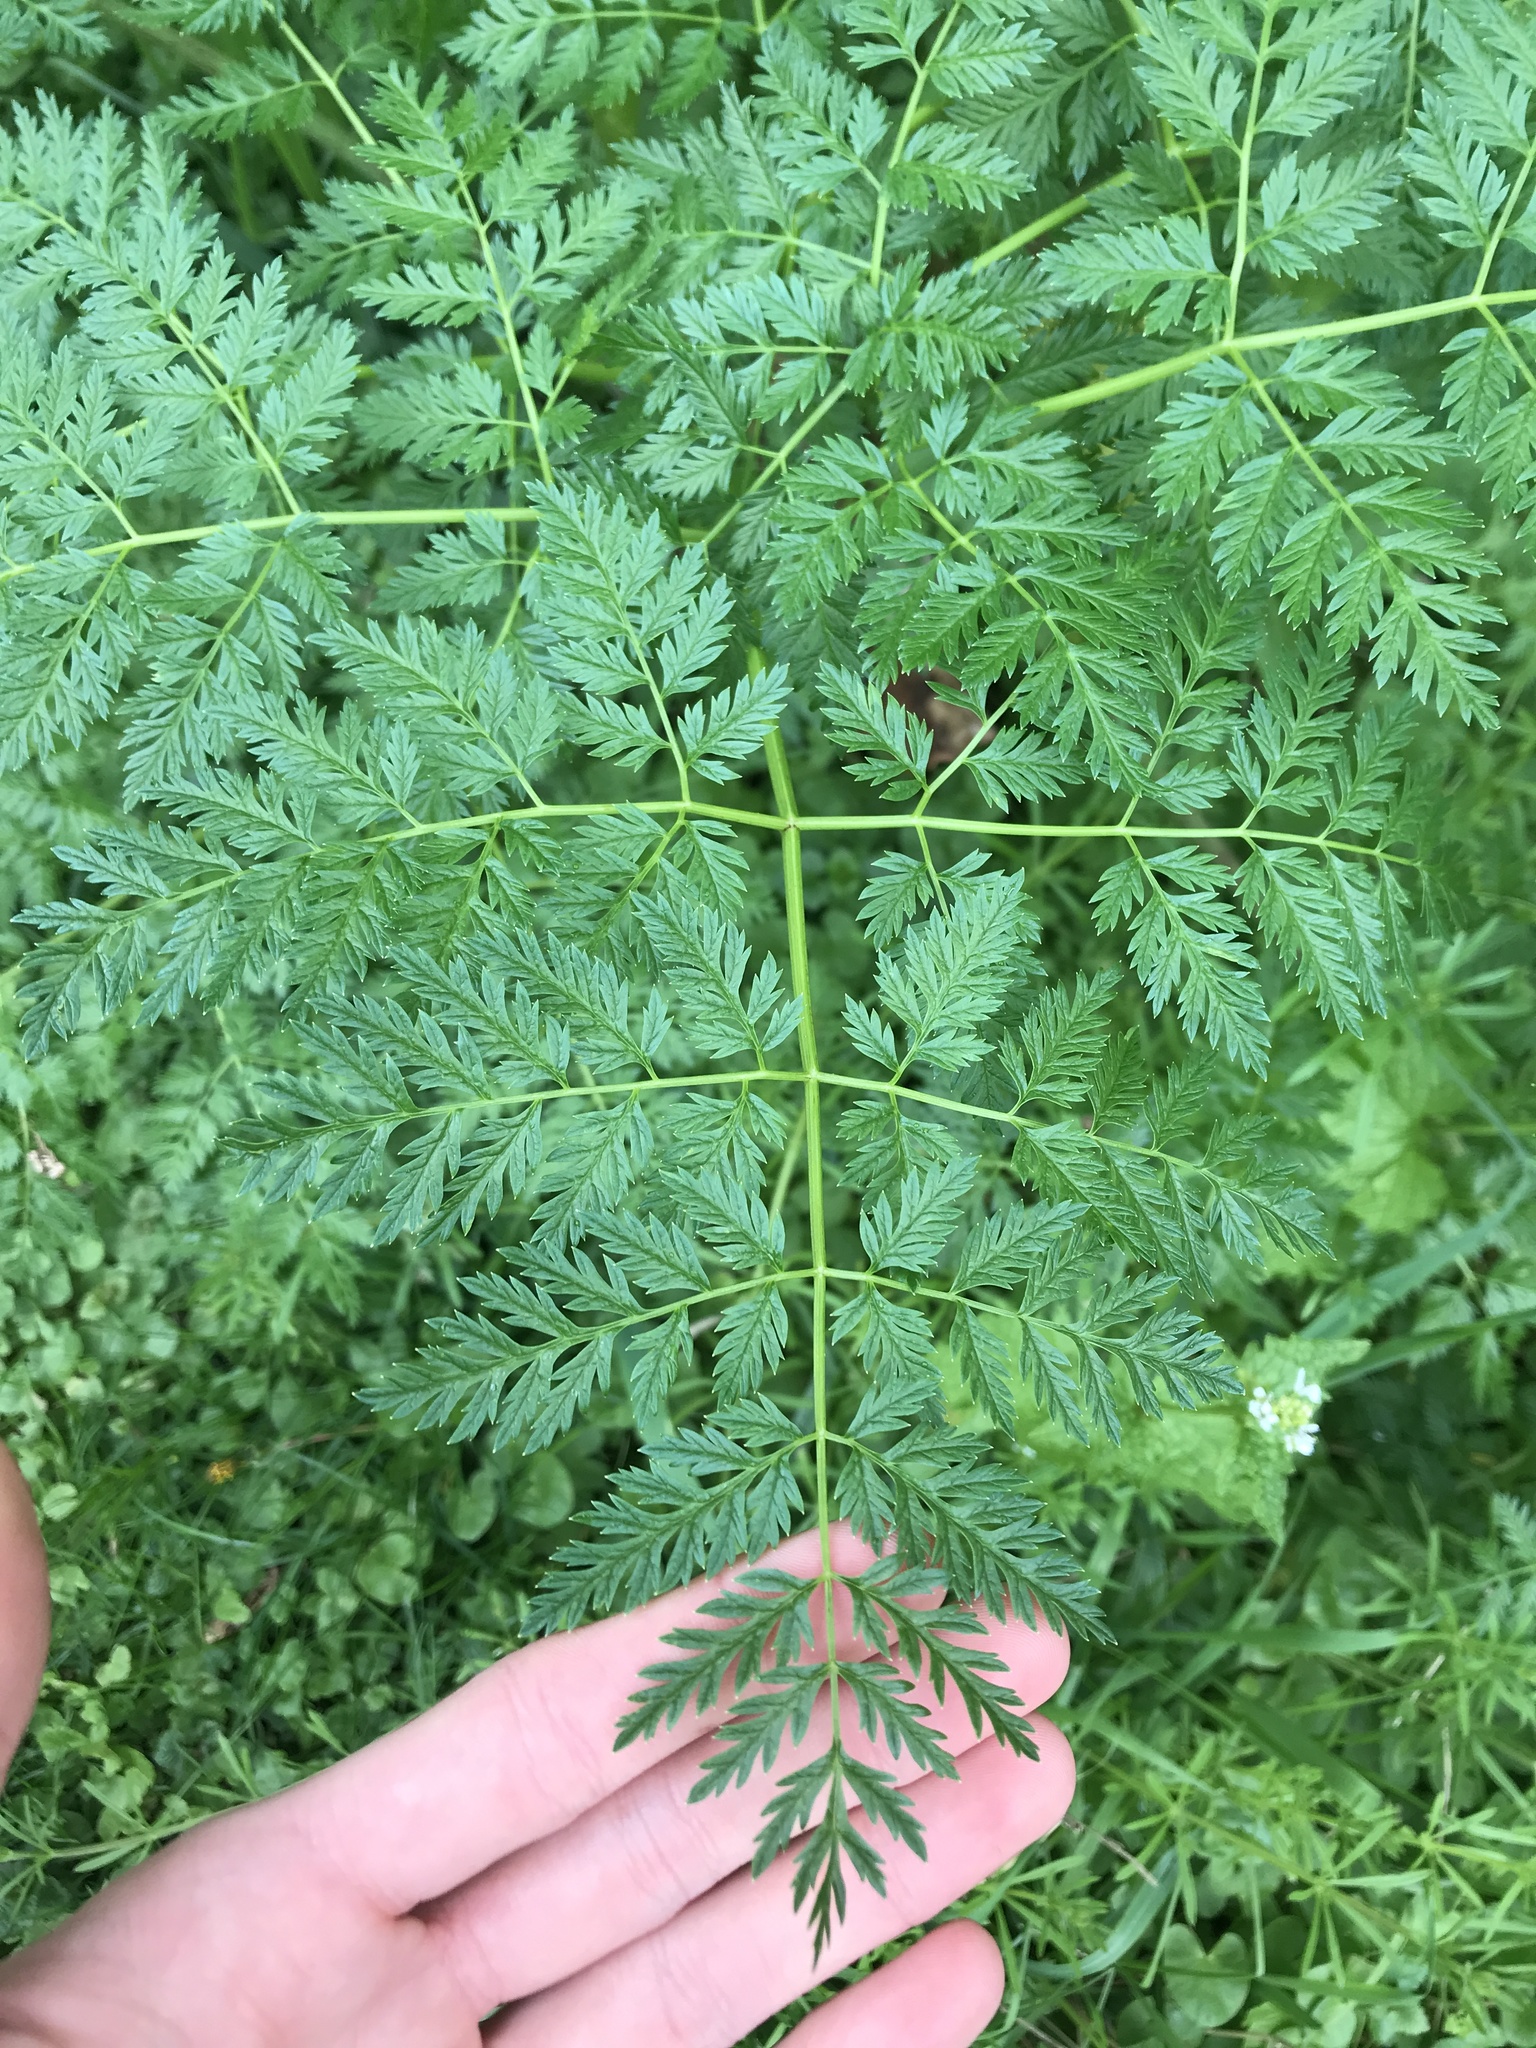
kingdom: Plantae
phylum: Tracheophyta
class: Magnoliopsida
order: Apiales
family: Apiaceae
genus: Conium
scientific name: Conium maculatum
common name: Hemlock
